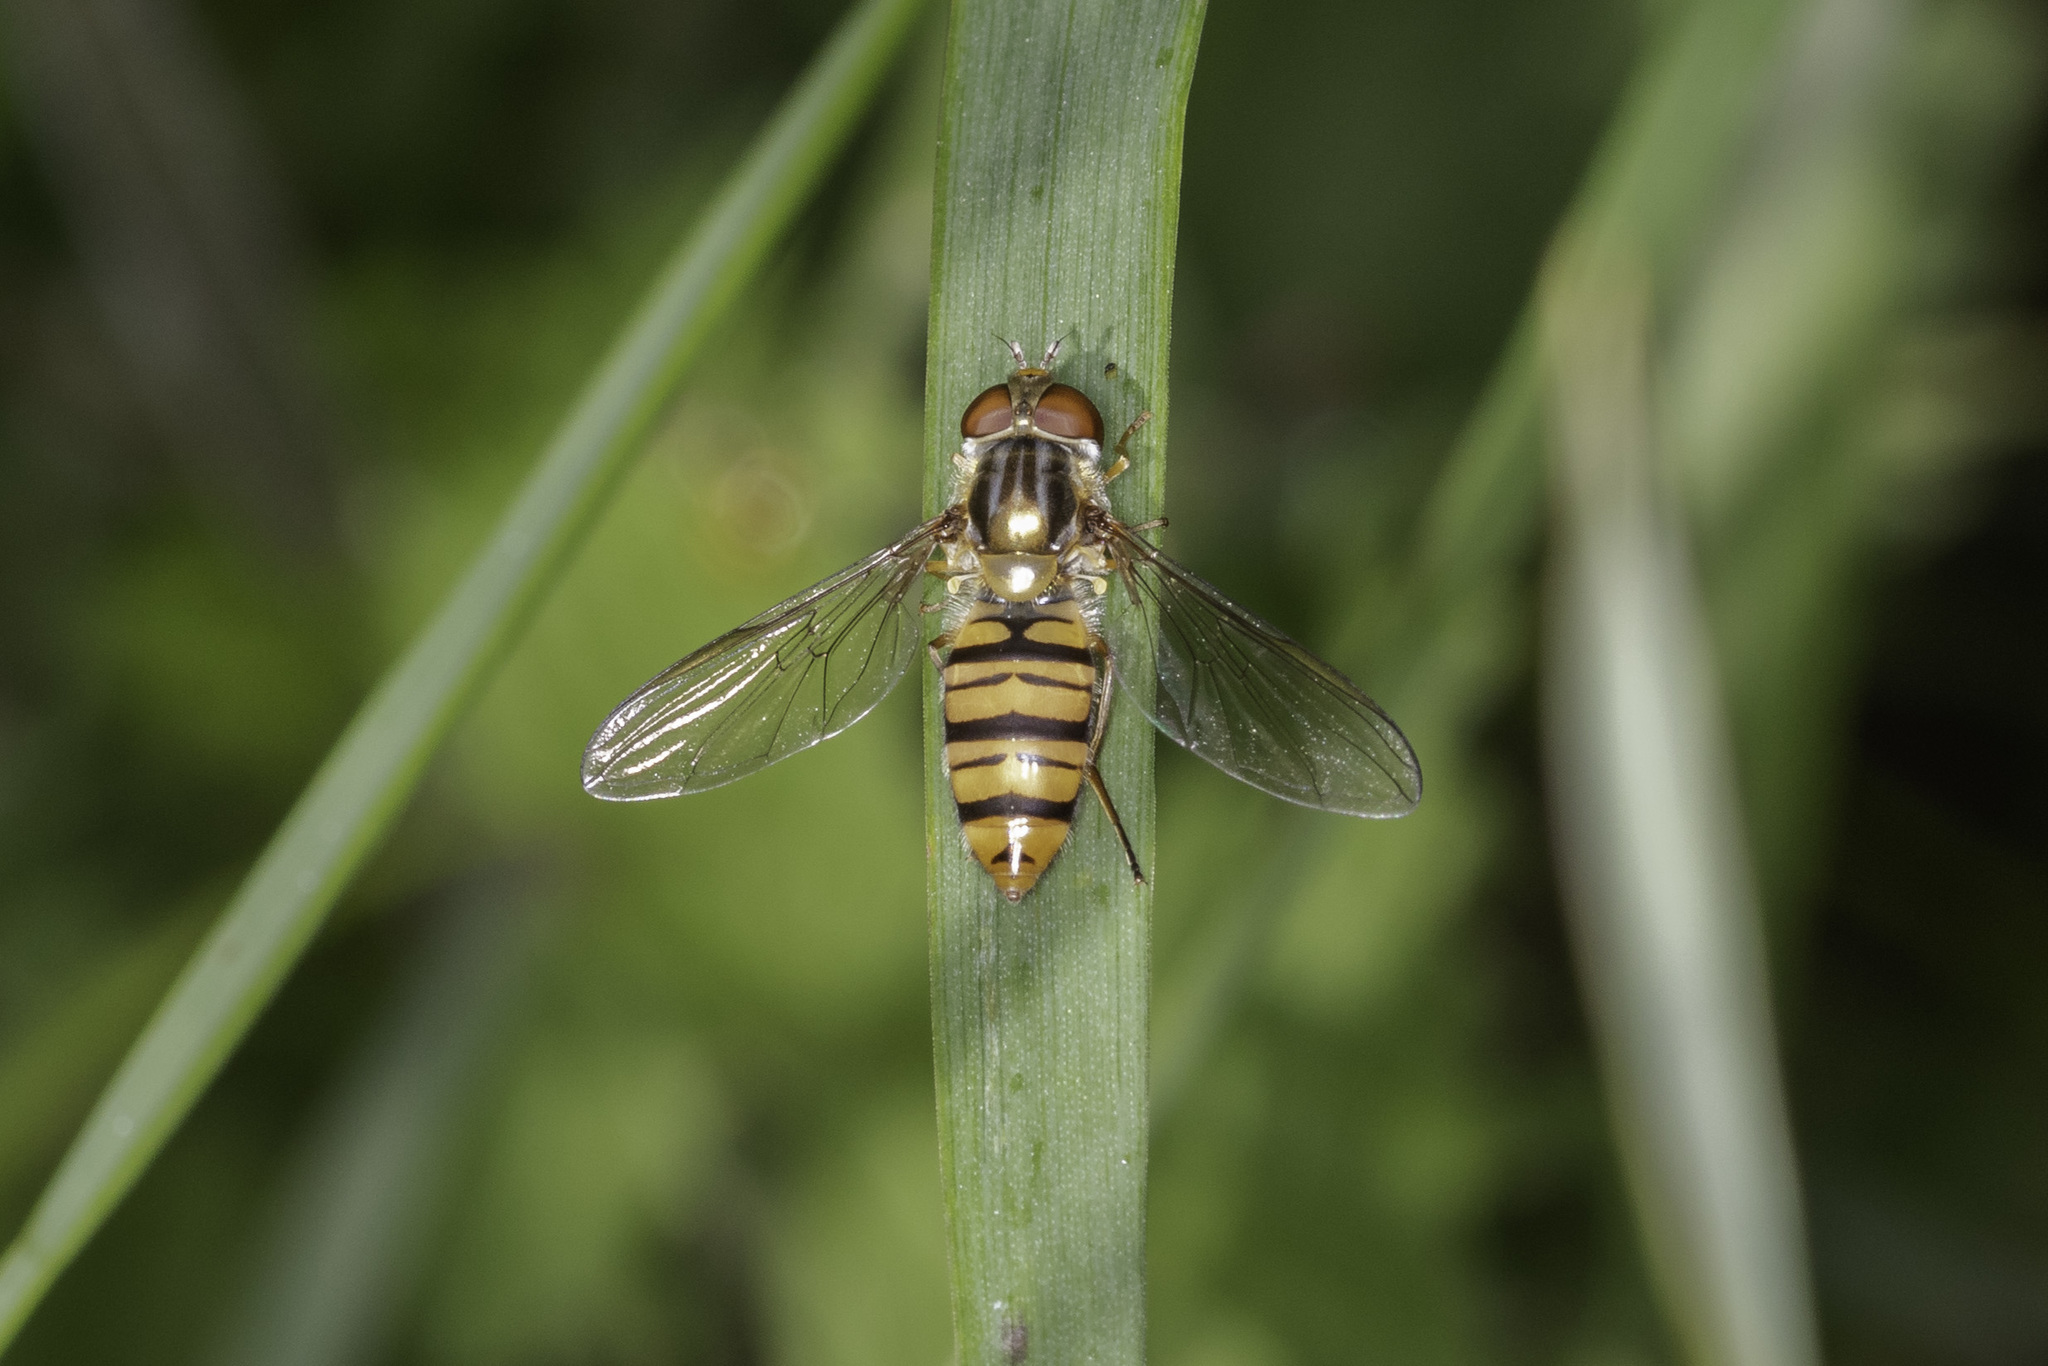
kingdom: Animalia
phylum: Arthropoda
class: Insecta
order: Diptera
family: Syrphidae
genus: Episyrphus
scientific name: Episyrphus balteatus
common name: Marmalade hoverfly
